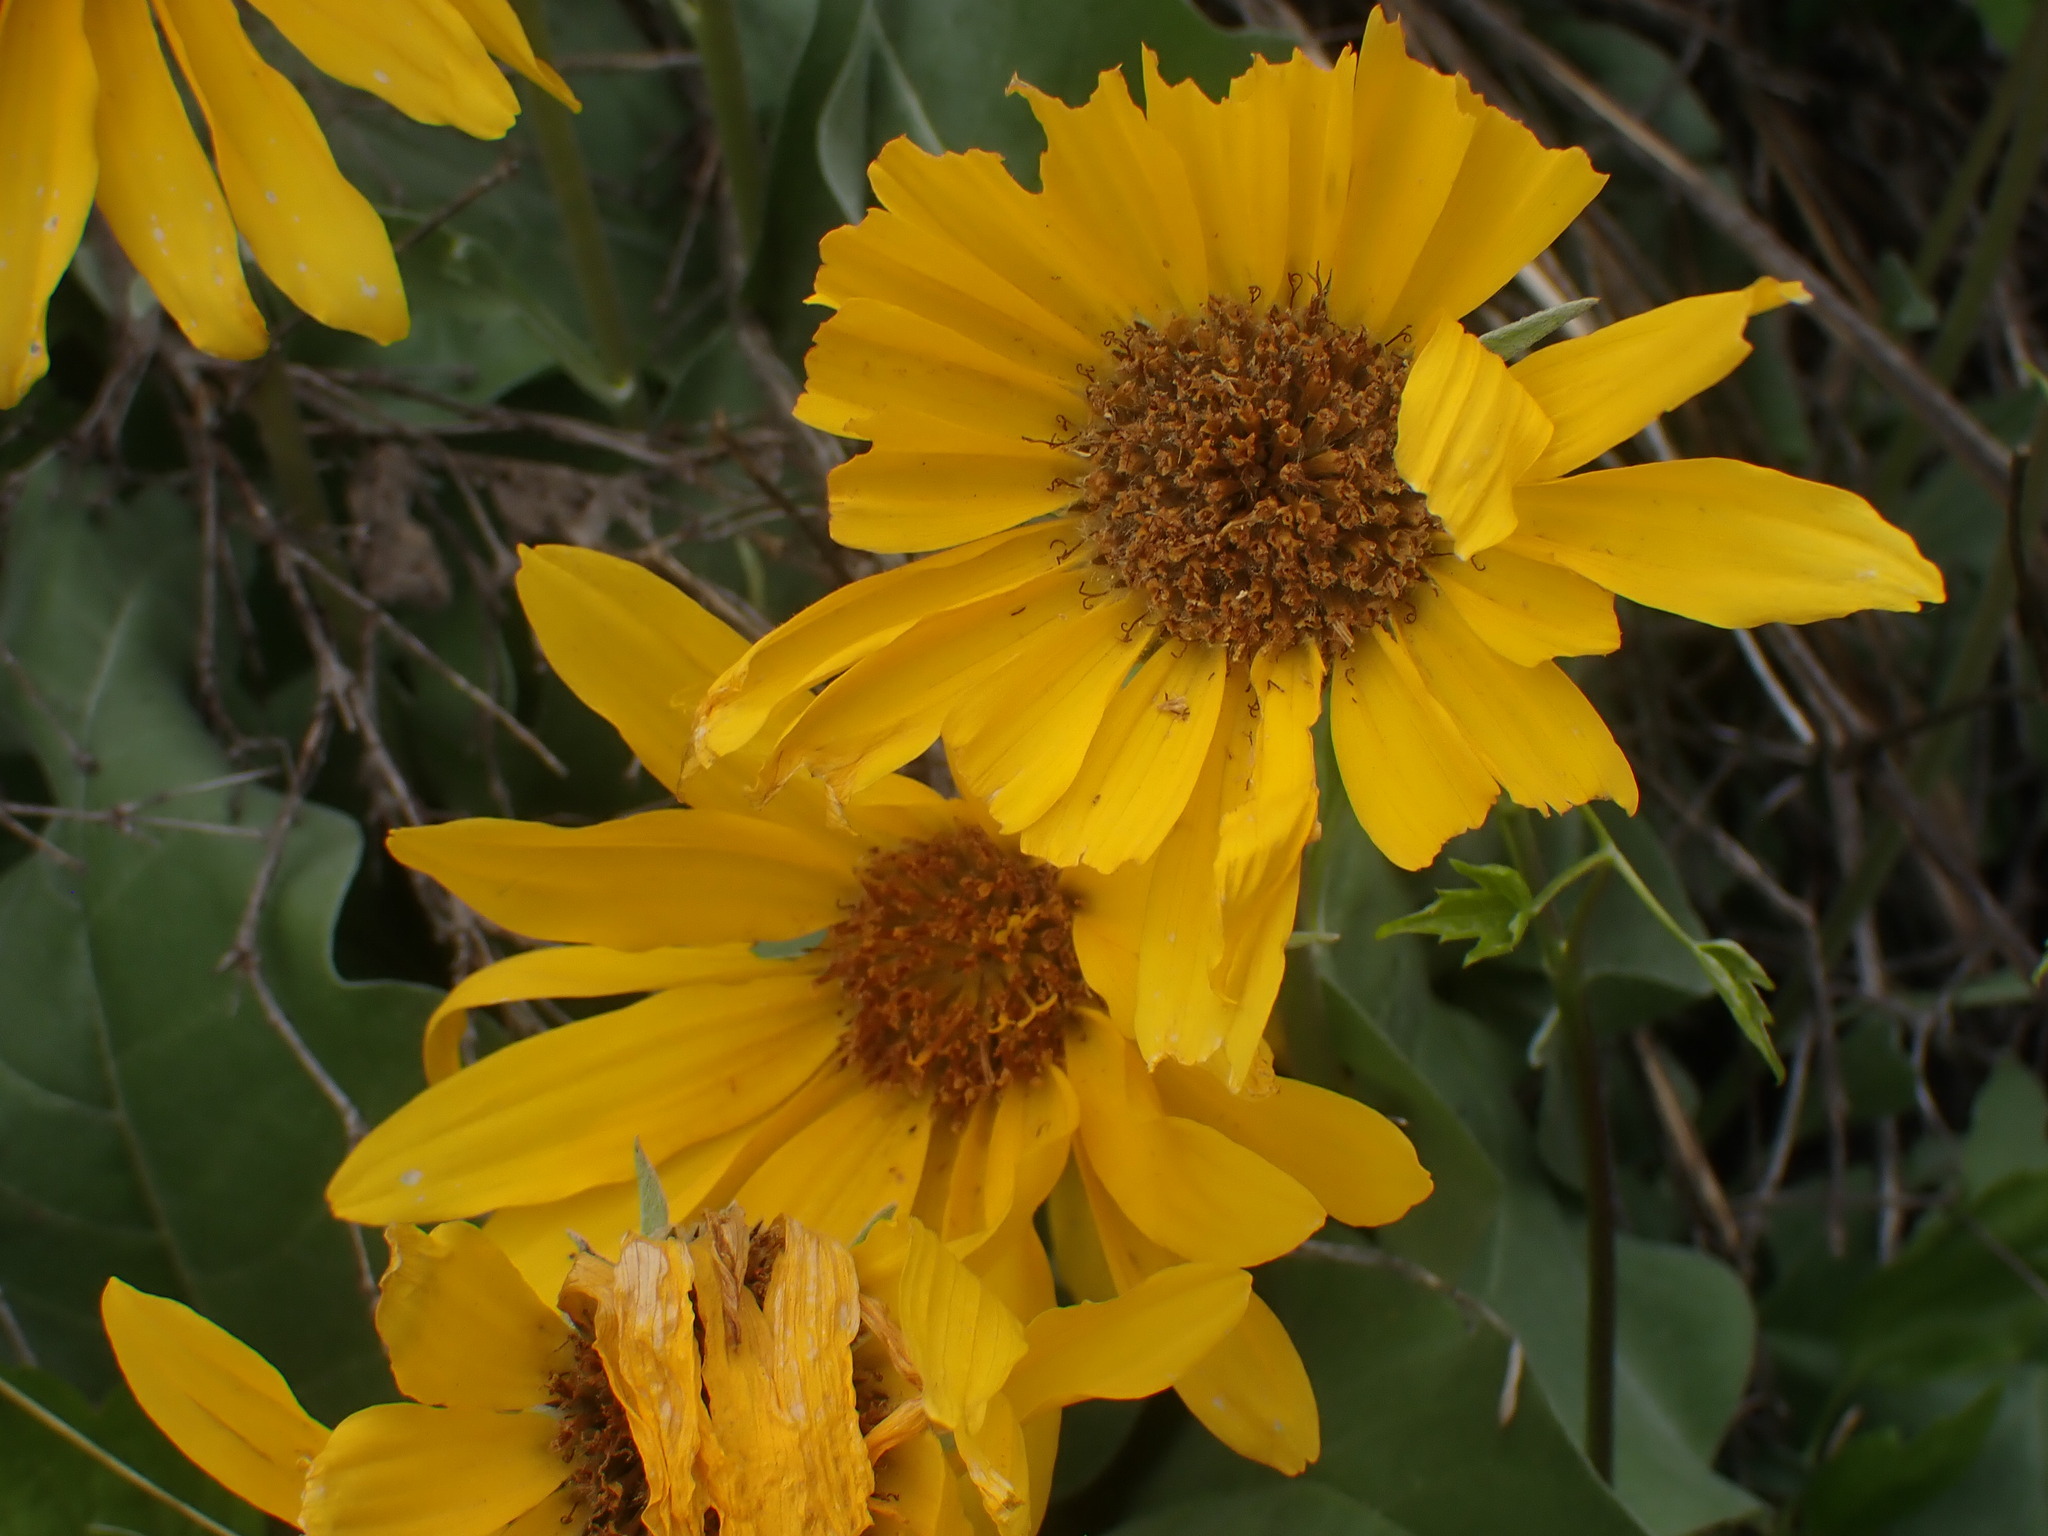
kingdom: Plantae
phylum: Tracheophyta
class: Magnoliopsida
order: Asterales
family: Asteraceae
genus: Wyethia
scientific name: Wyethia sagittata
